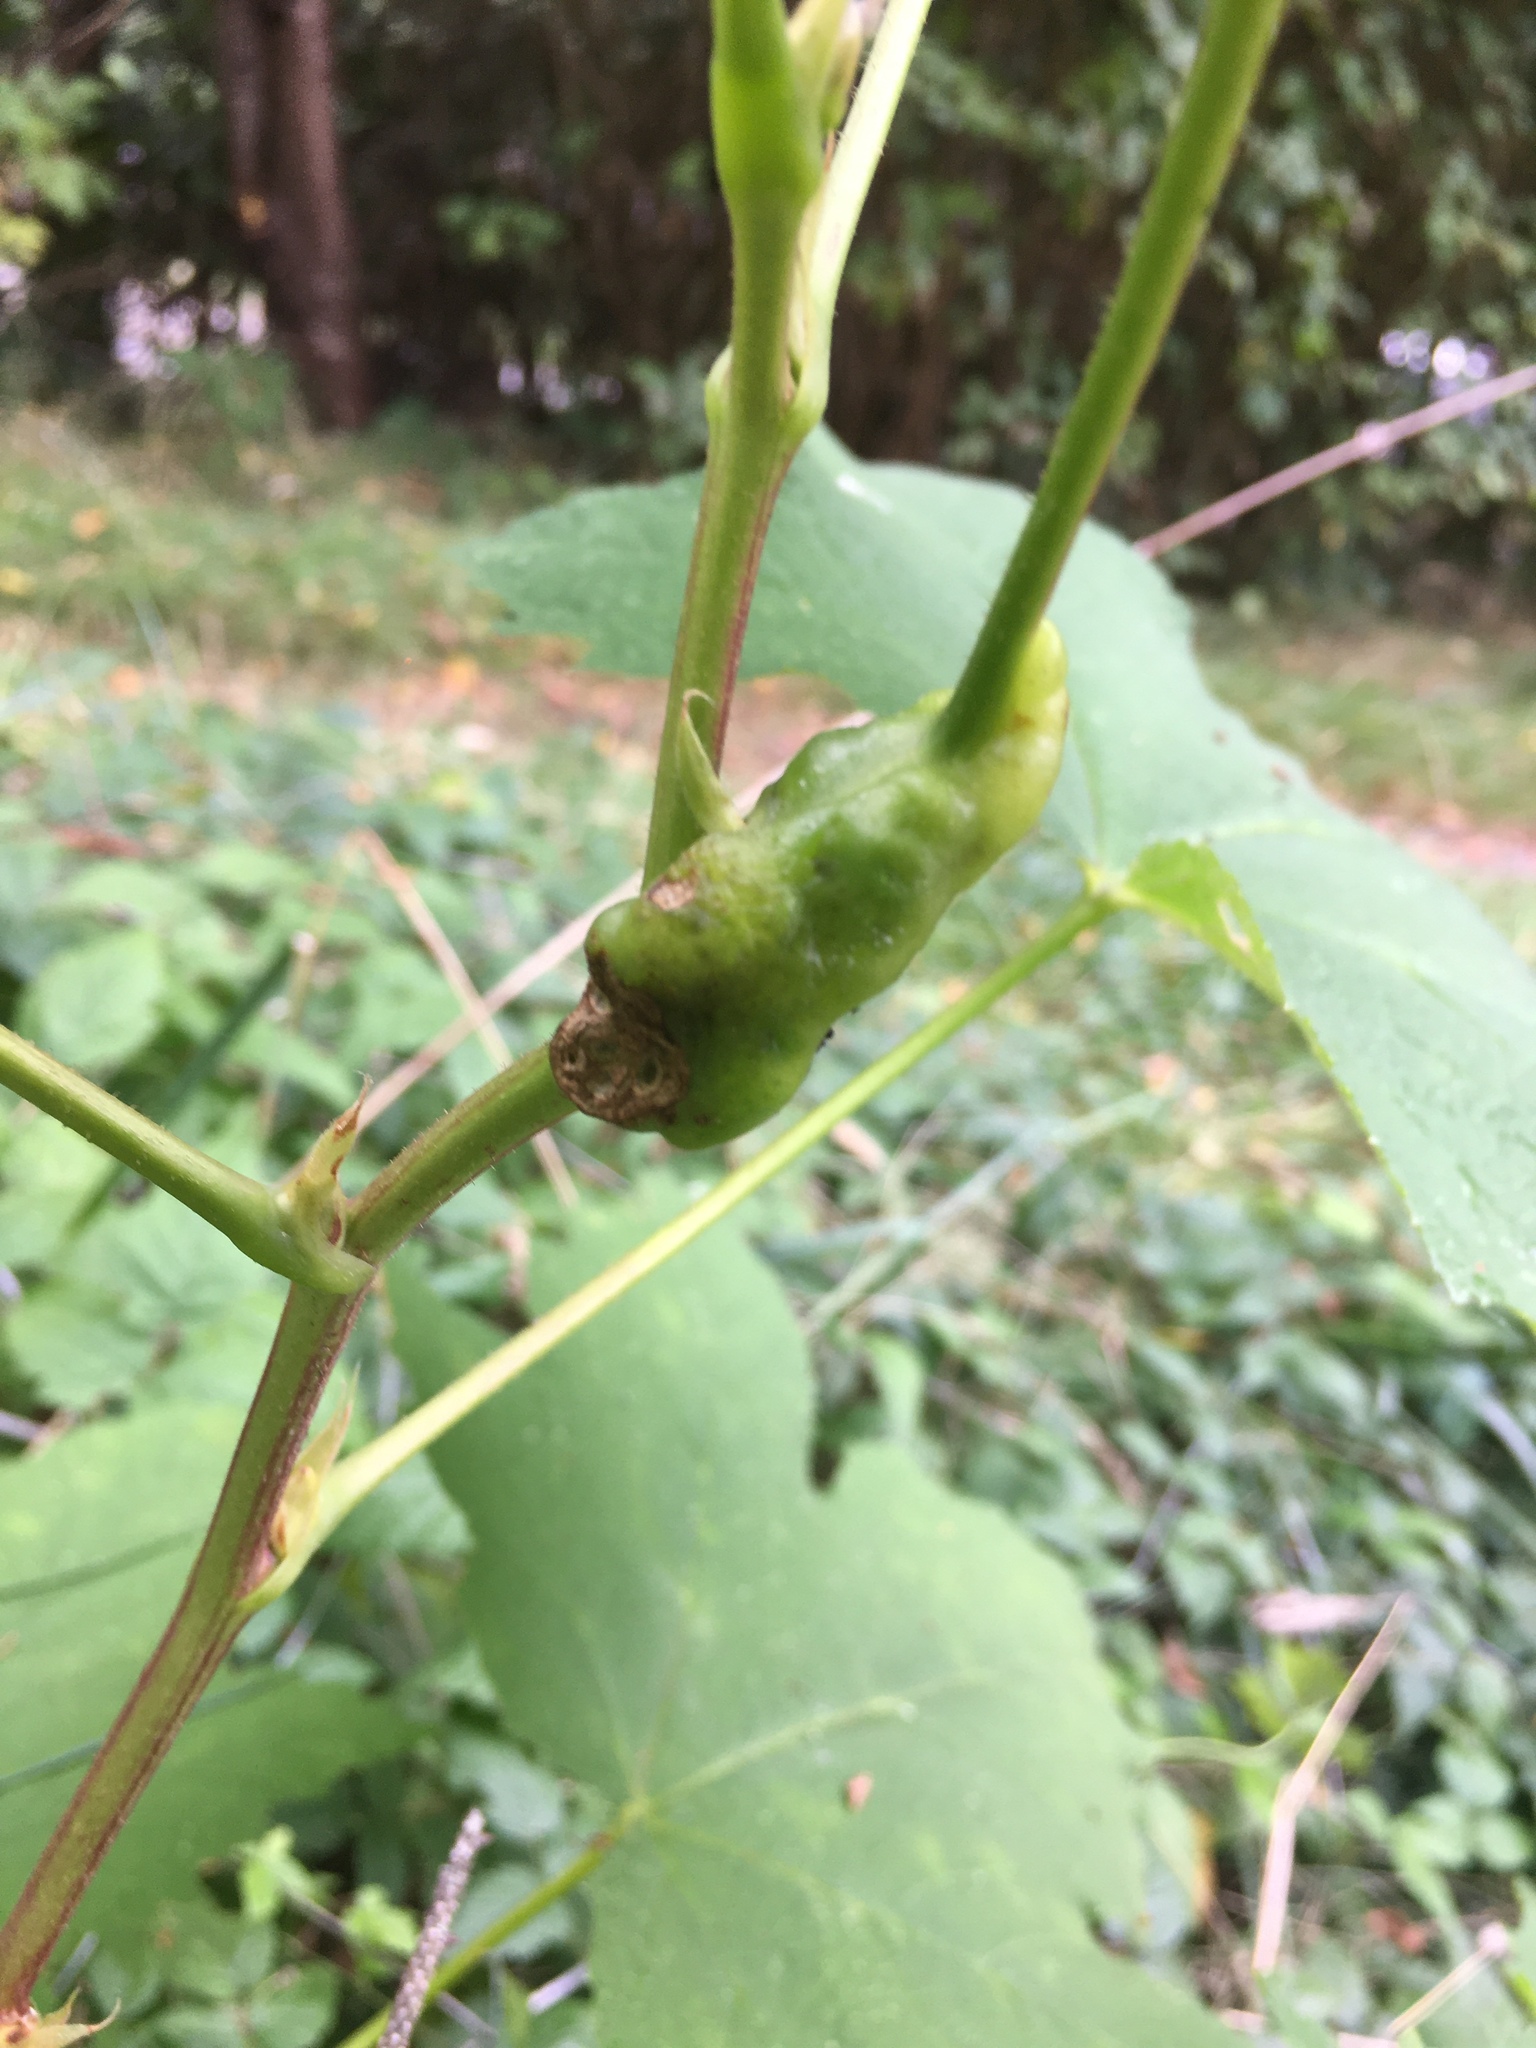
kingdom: Animalia
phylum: Arthropoda
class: Insecta
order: Hymenoptera
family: Cynipidae
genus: Diastrophus
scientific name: Diastrophus
